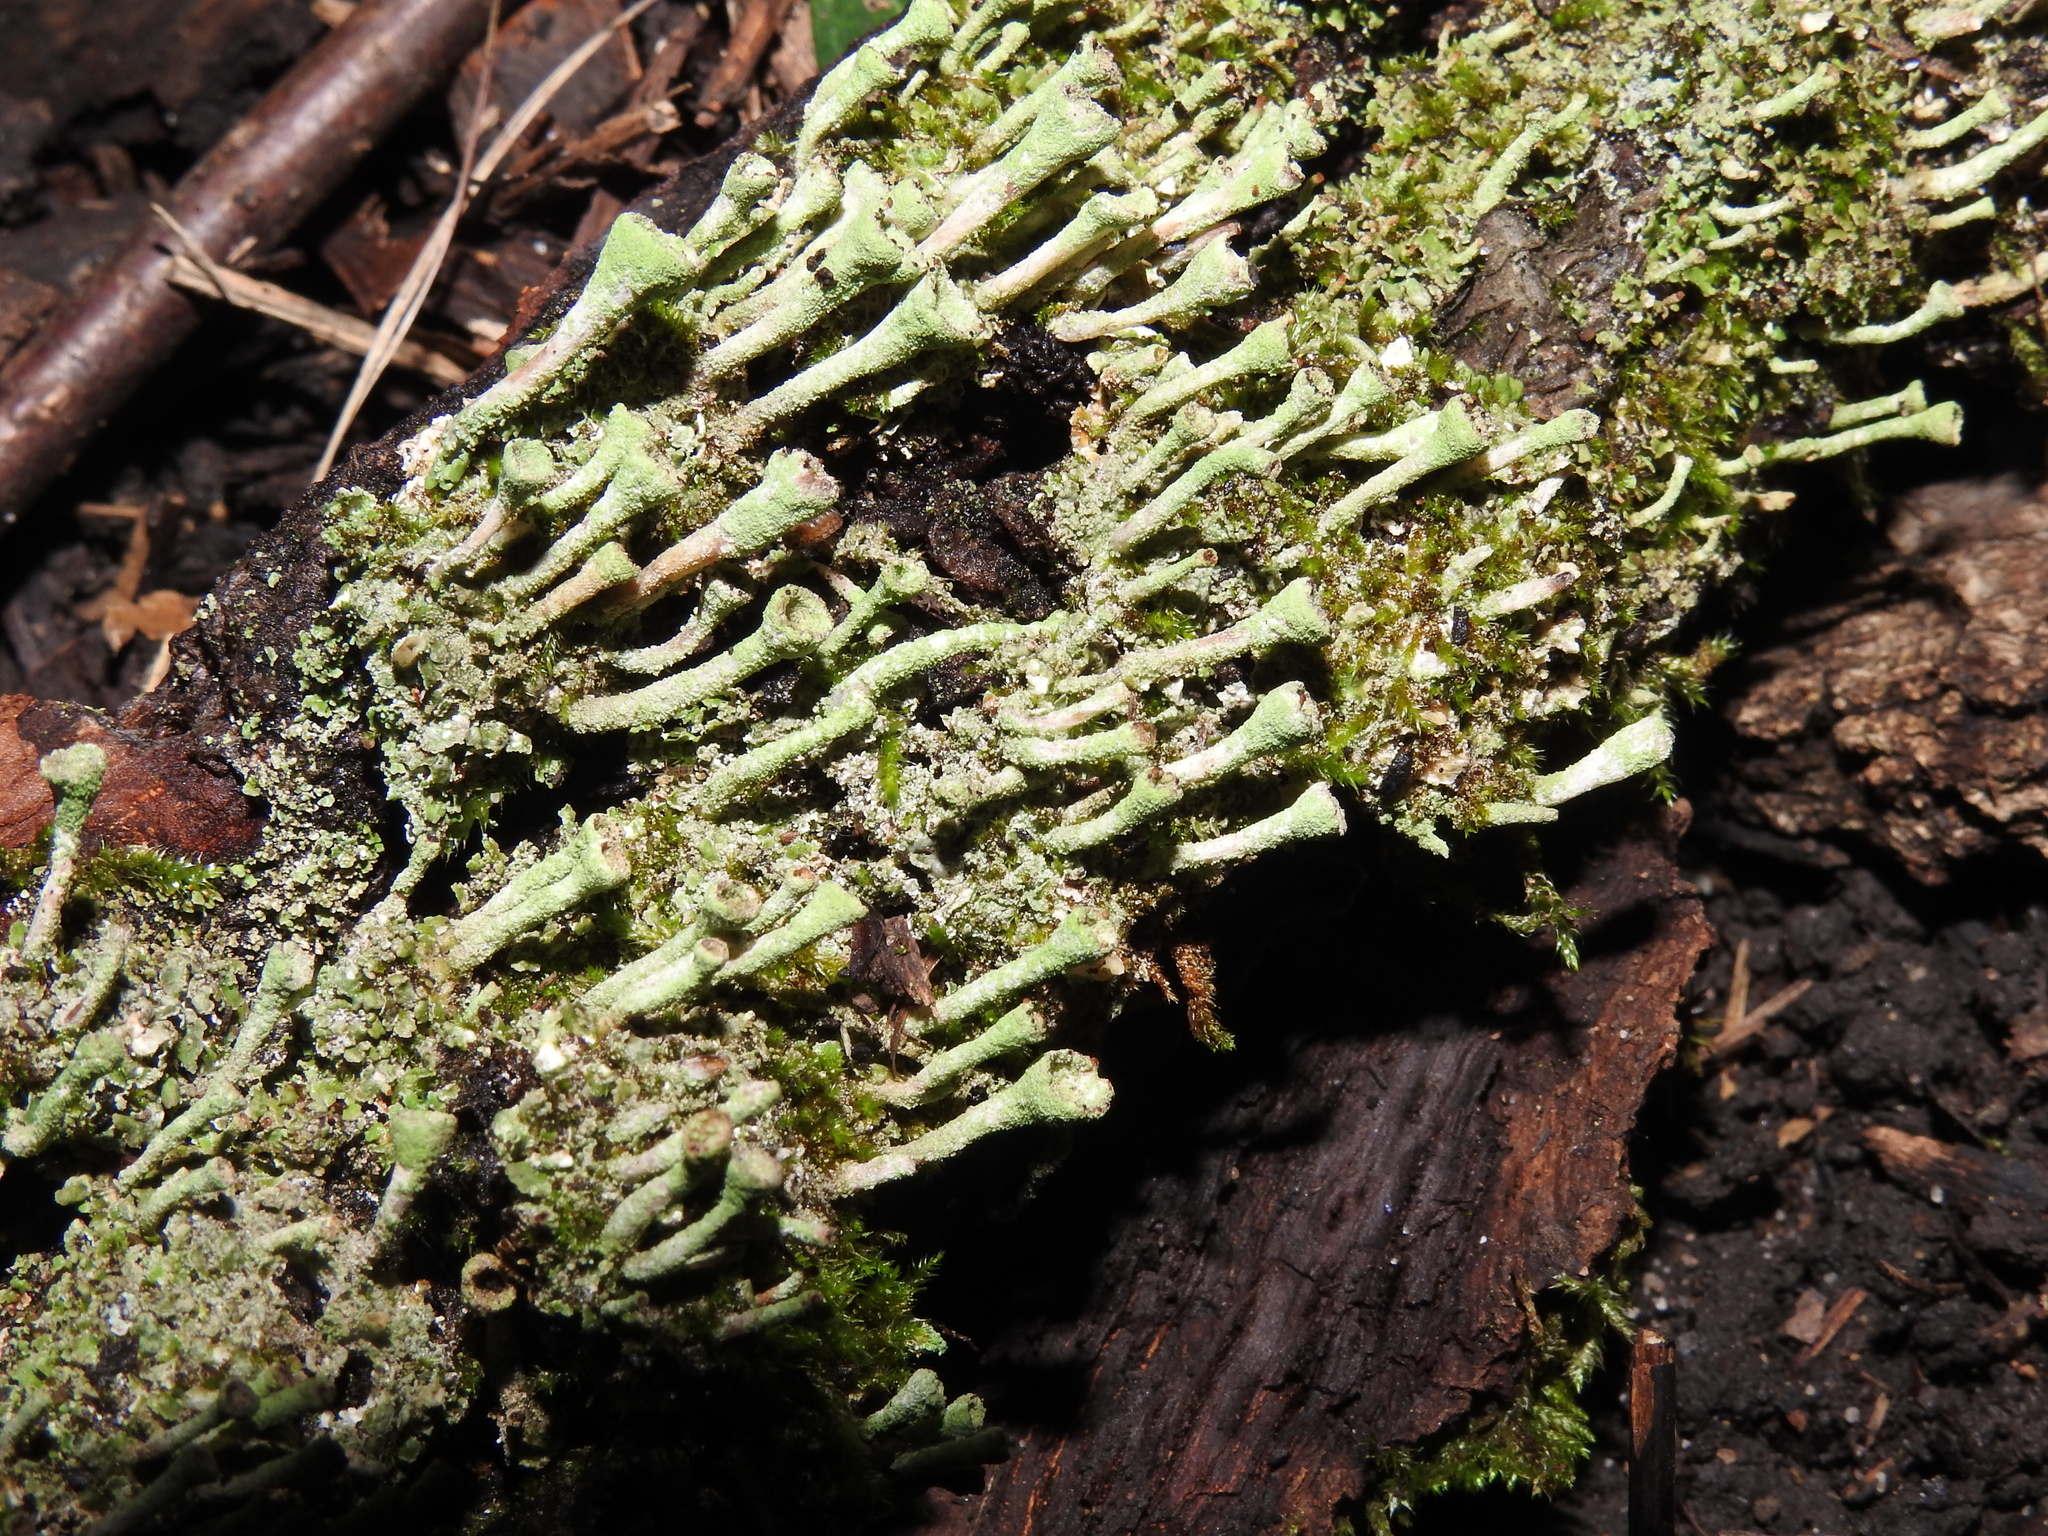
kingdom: Fungi
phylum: Ascomycota
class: Lecanoromycetes
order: Lecanorales
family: Cladoniaceae
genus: Cladonia
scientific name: Cladonia fimbriata
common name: Powdered trumpet lichen
